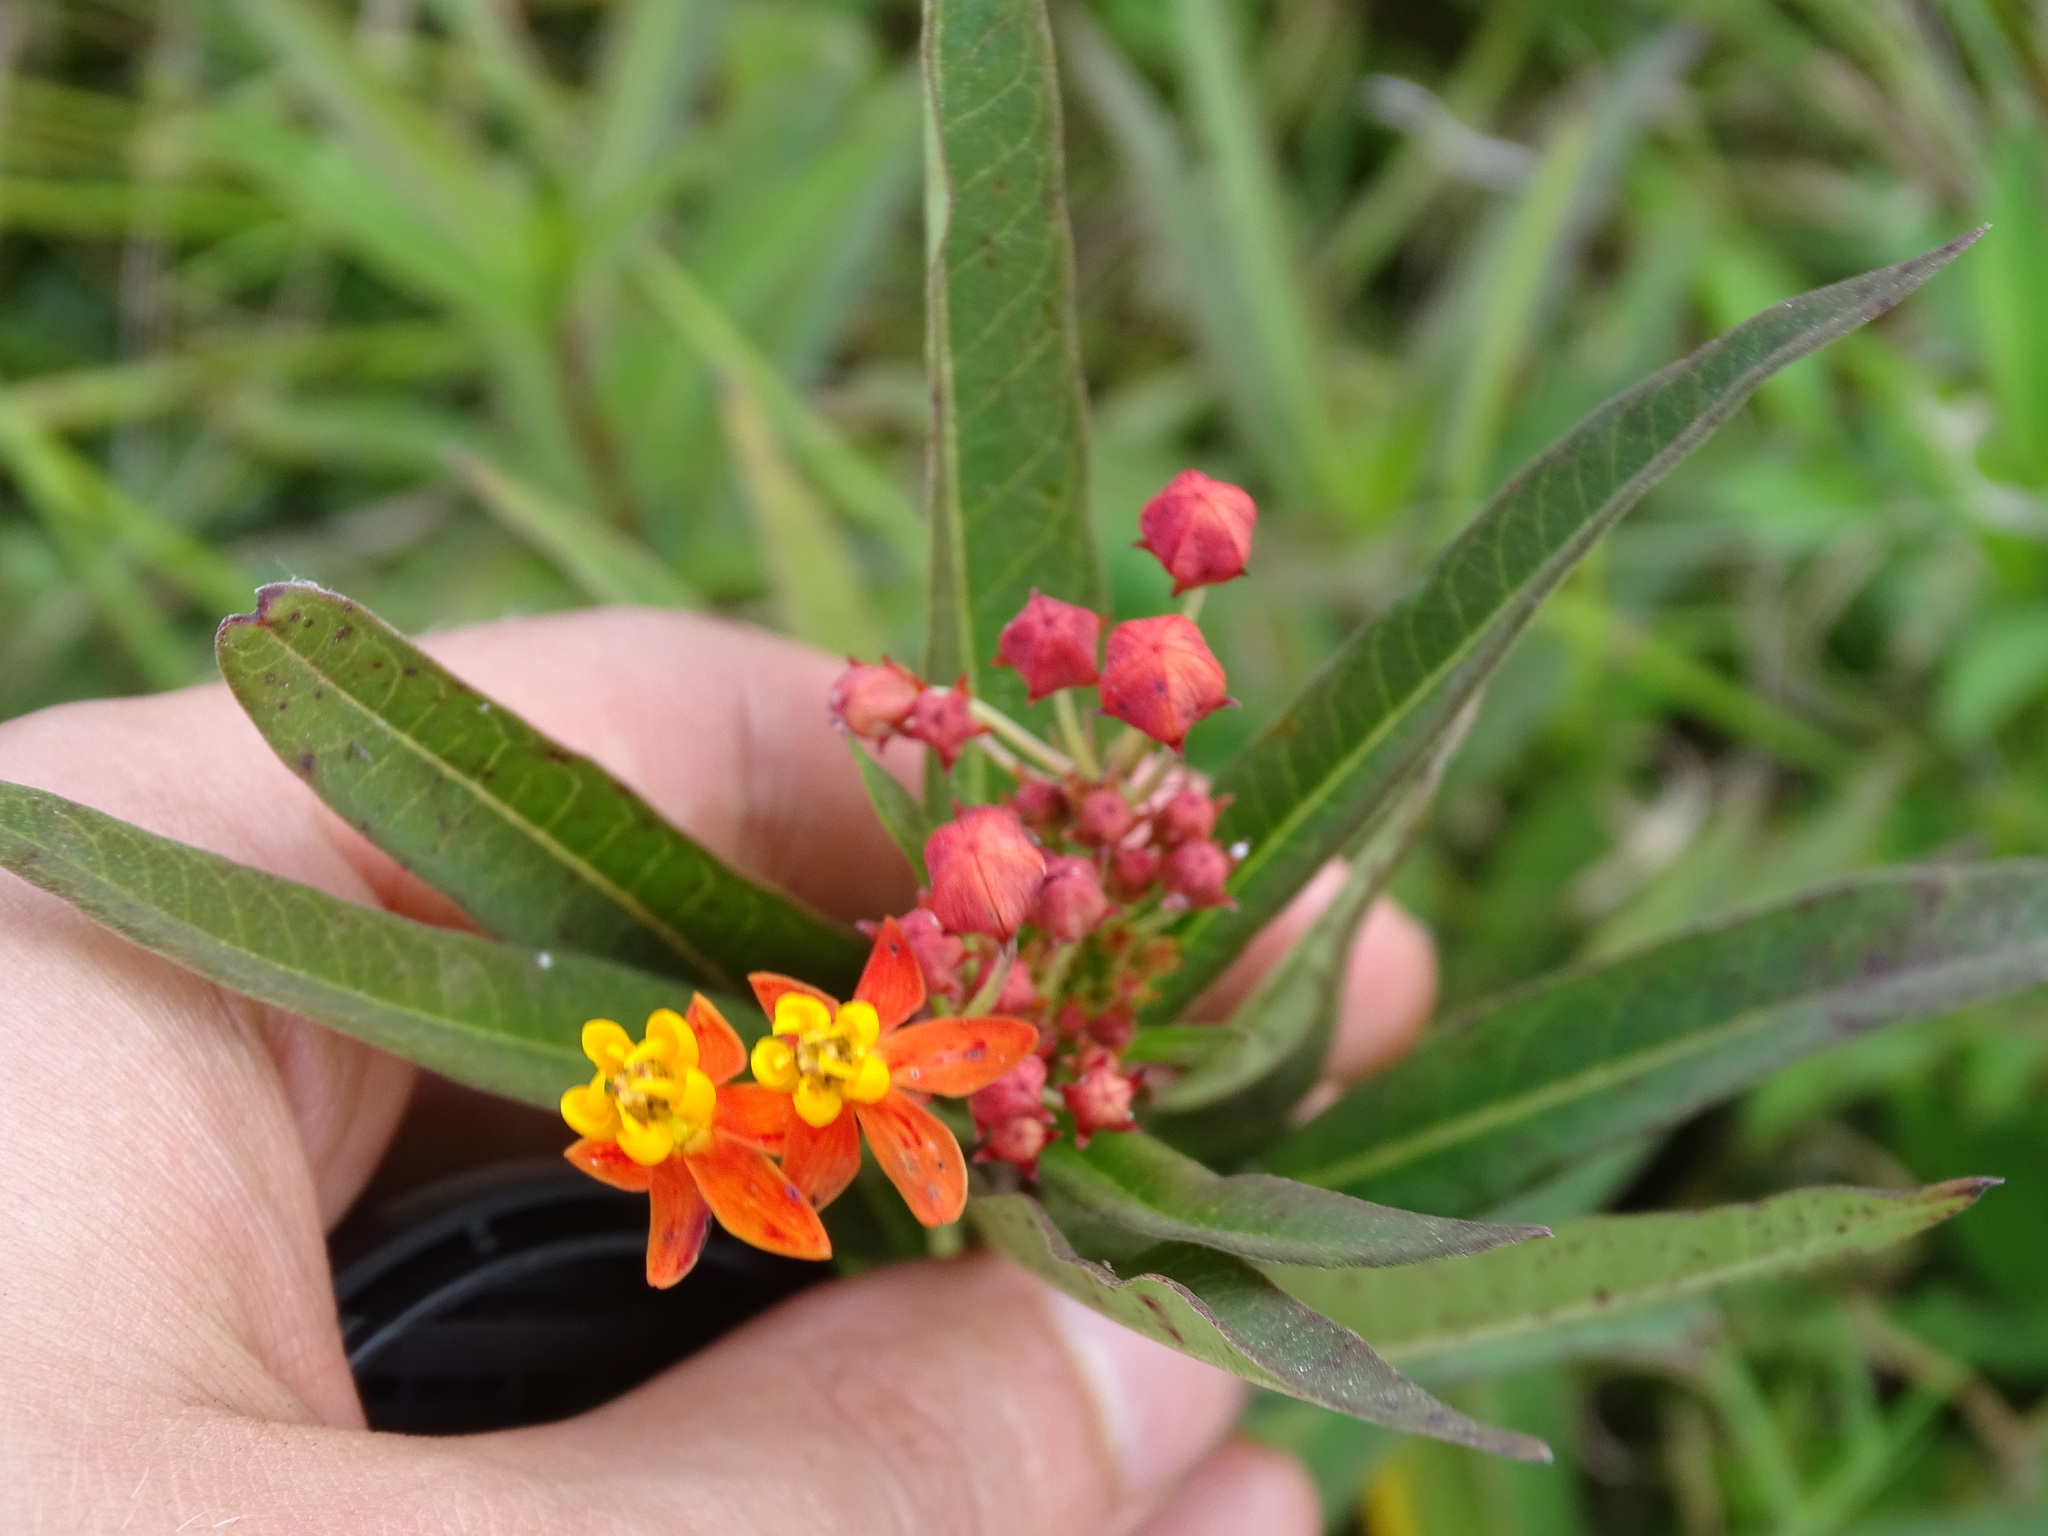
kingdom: Plantae
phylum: Tracheophyta
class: Magnoliopsida
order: Gentianales
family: Apocynaceae
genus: Asclepias
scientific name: Asclepias curassavica
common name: Bloodflower
